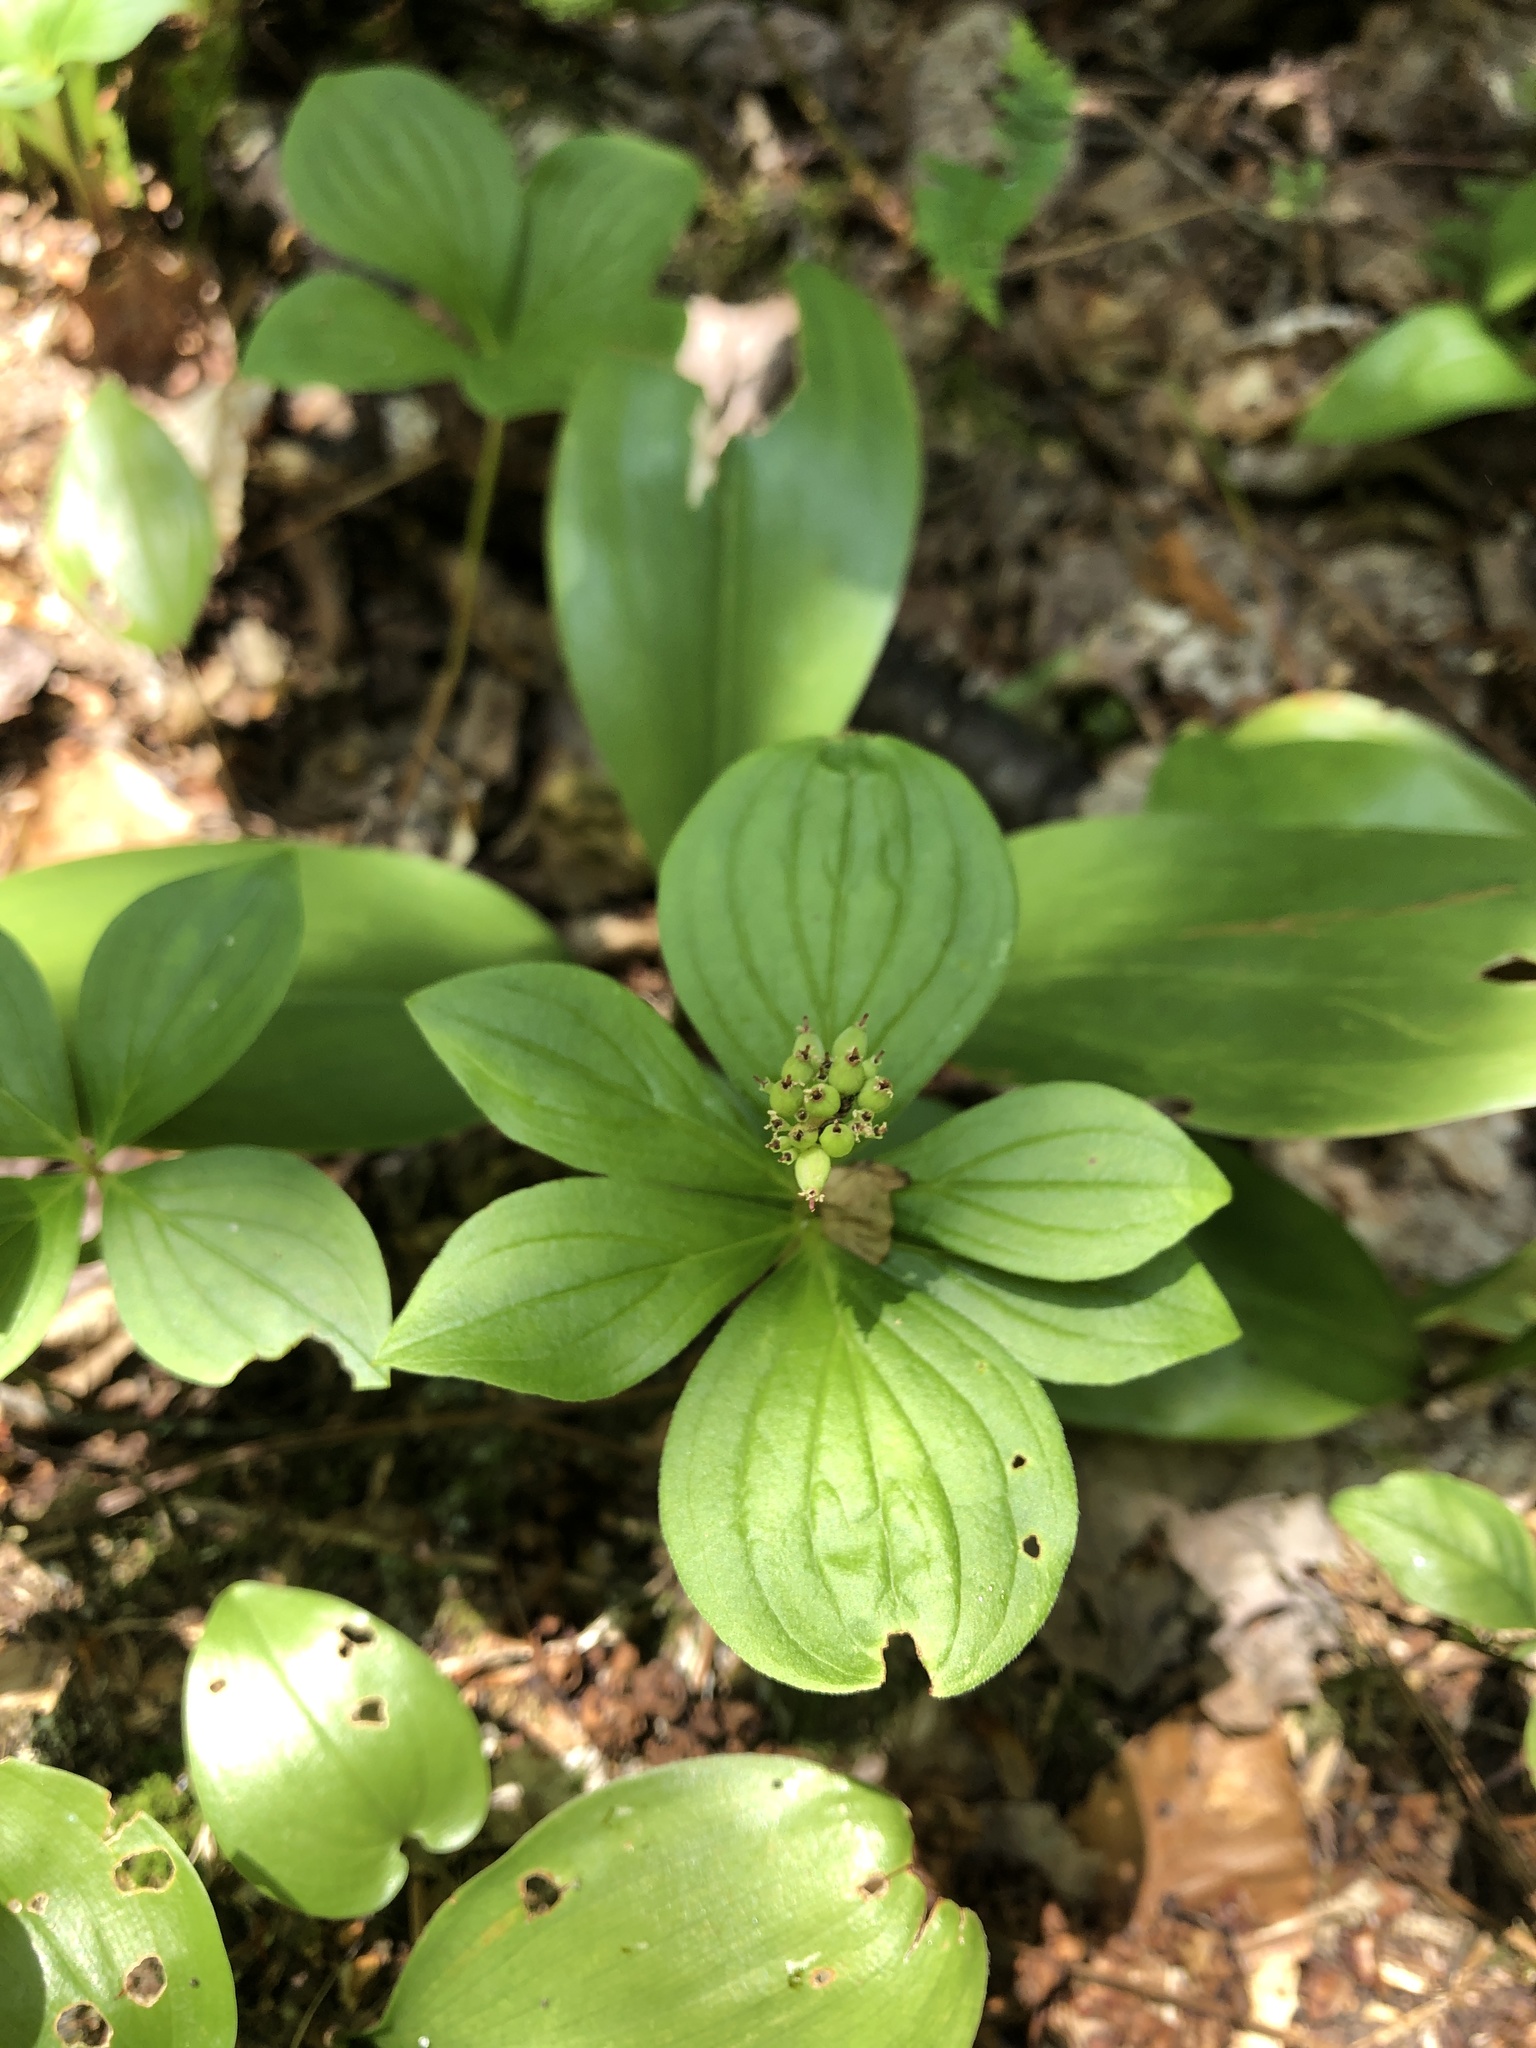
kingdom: Plantae
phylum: Tracheophyta
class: Magnoliopsida
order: Cornales
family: Cornaceae
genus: Cornus
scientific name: Cornus canadensis
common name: Creeping dogwood
